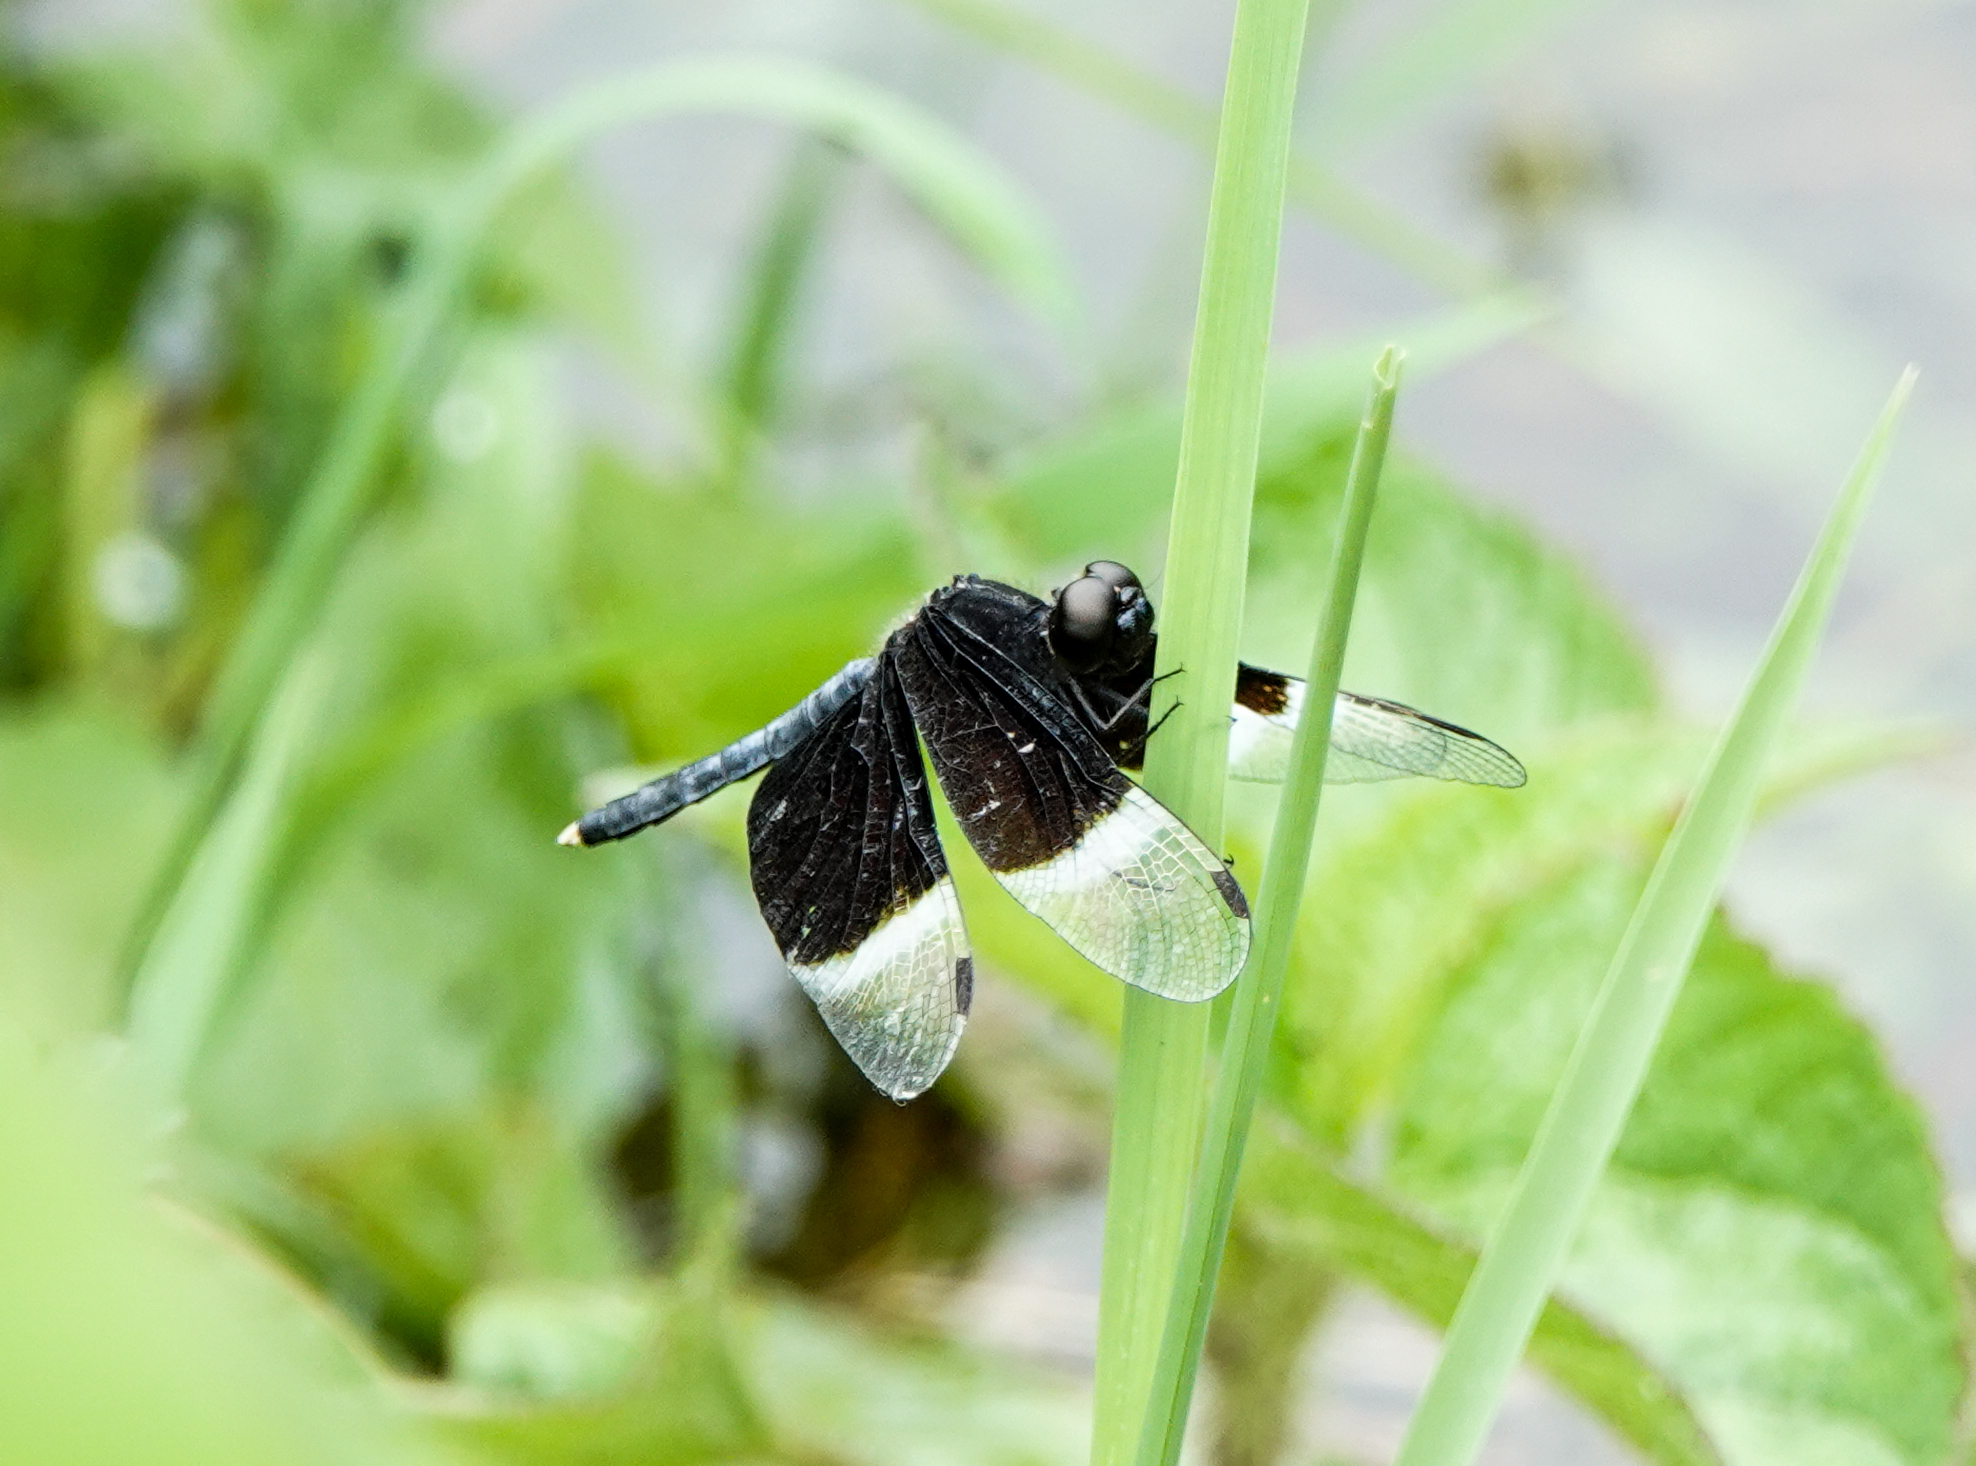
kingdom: Animalia
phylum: Arthropoda
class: Insecta
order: Odonata
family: Libellulidae
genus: Neurothemis
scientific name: Neurothemis tullia
